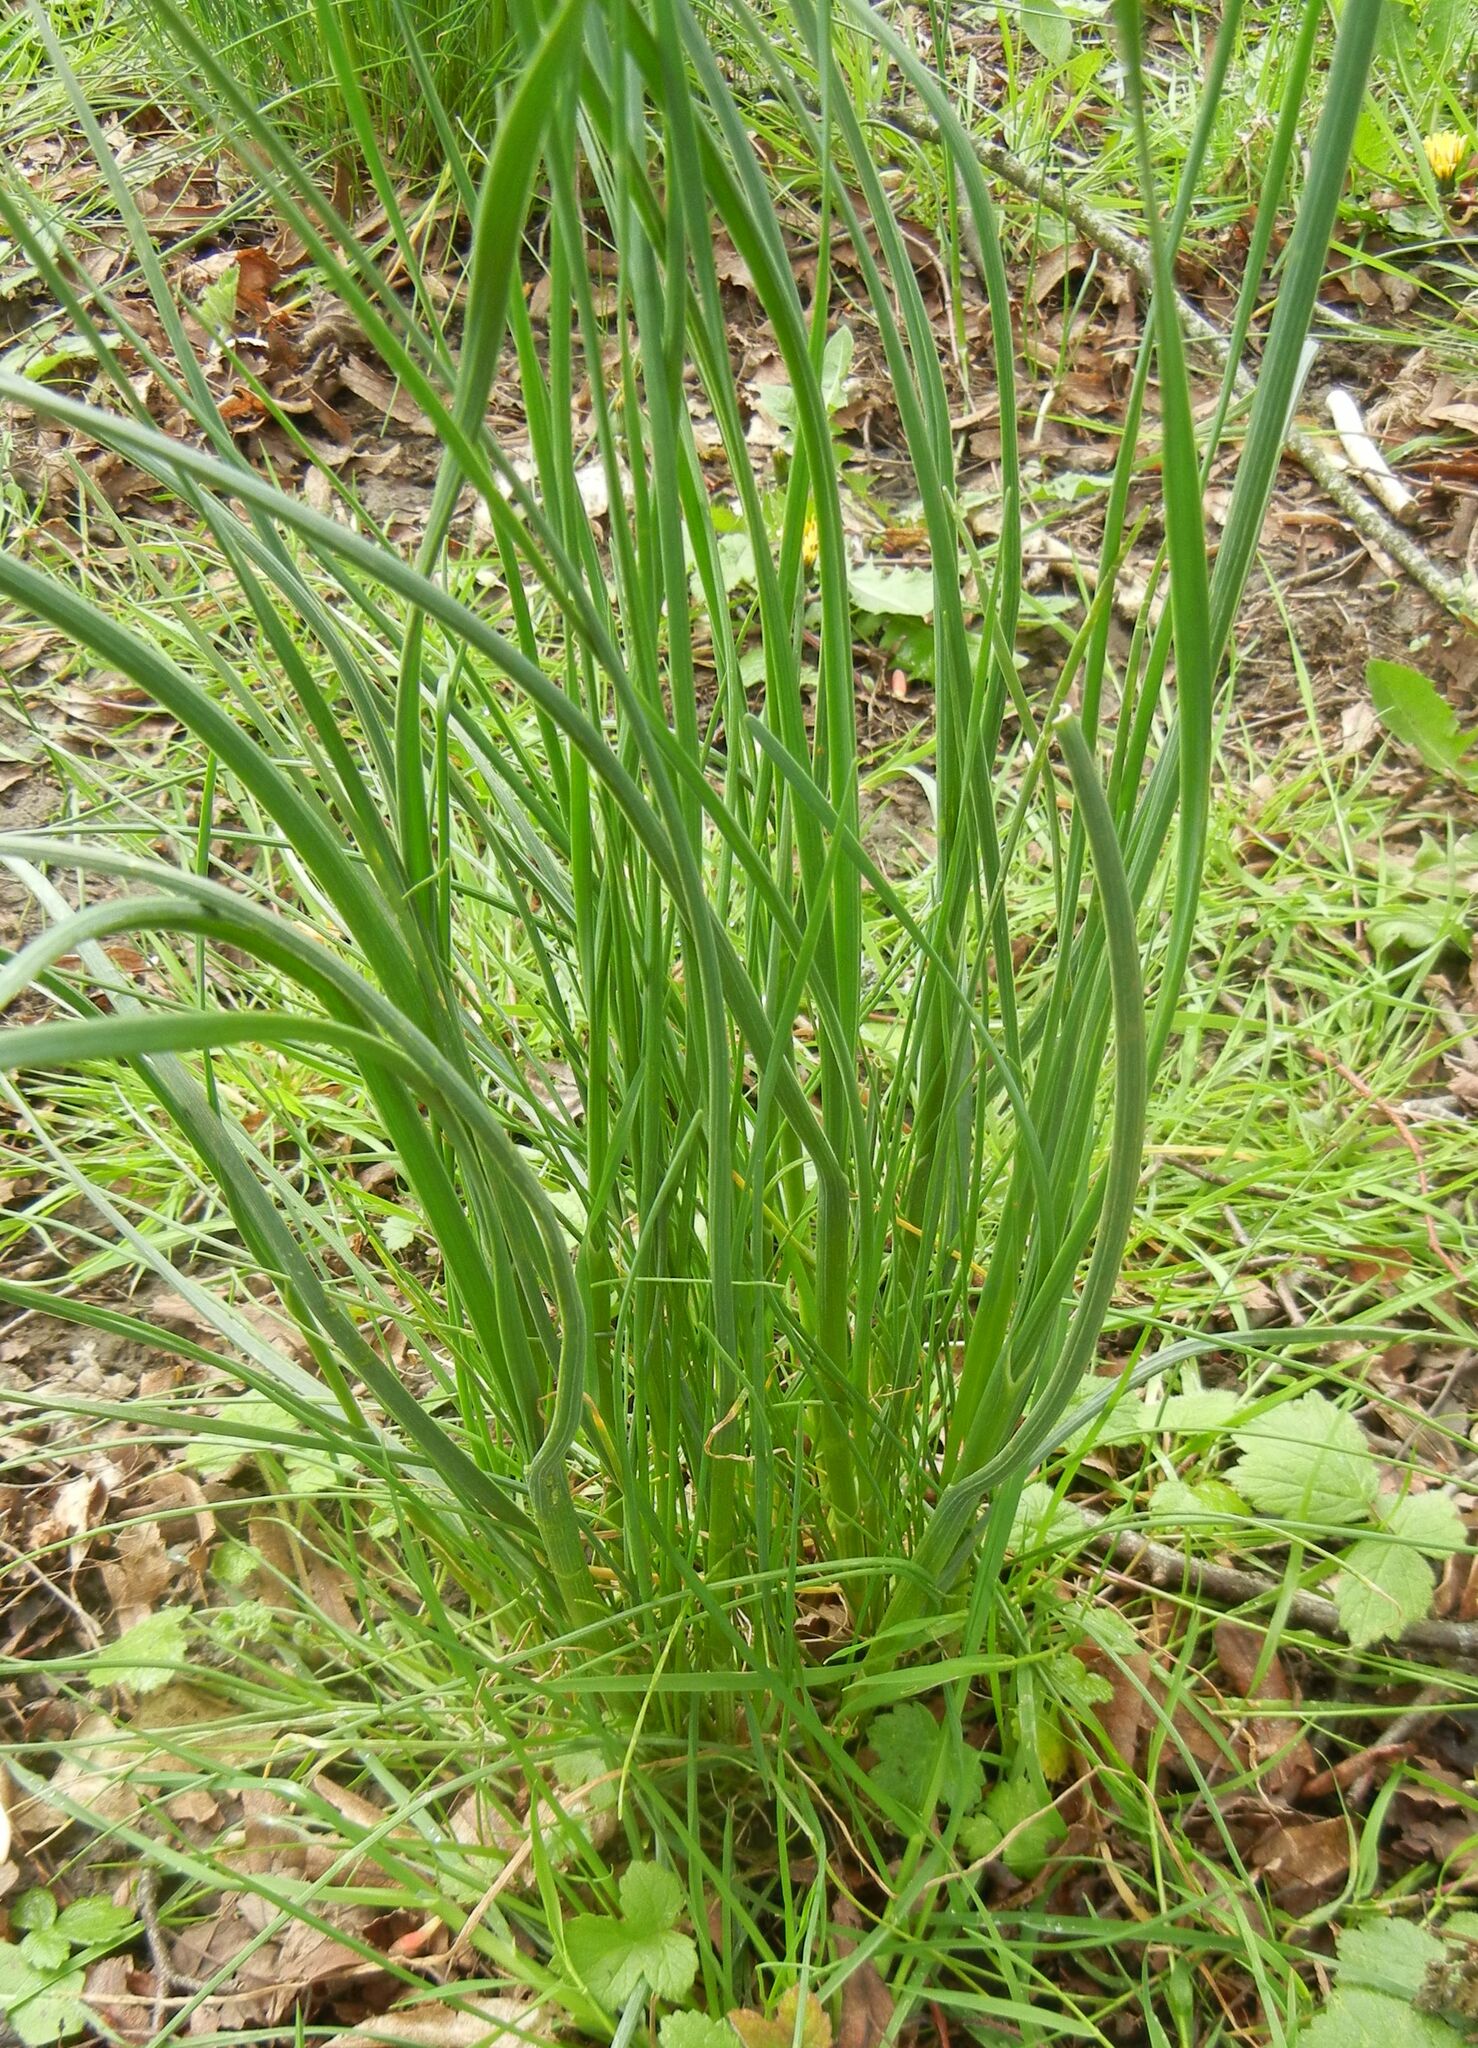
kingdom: Plantae
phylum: Tracheophyta
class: Liliopsida
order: Asparagales
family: Amaryllidaceae
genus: Allium
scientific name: Allium vineale
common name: Crow garlic
